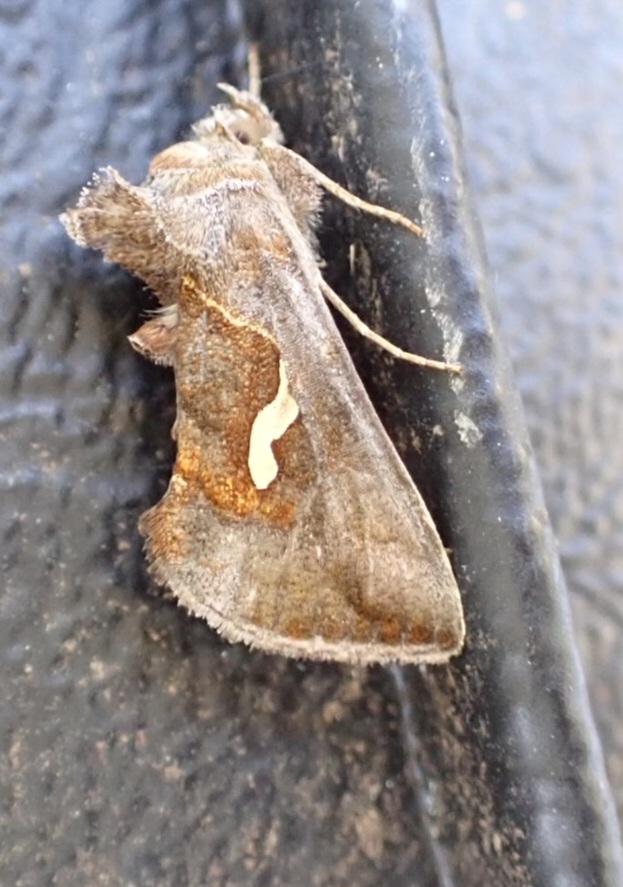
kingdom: Animalia
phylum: Arthropoda
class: Insecta
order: Lepidoptera
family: Noctuidae
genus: Macdunnoughia
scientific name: Macdunnoughia confusa
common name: Dewick's plusia
